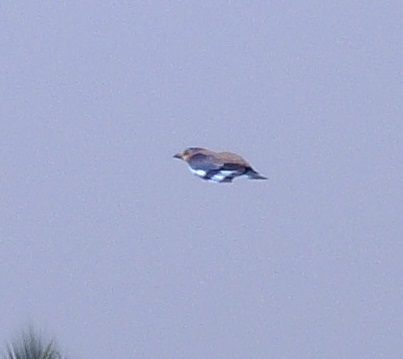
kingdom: Animalia
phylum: Chordata
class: Aves
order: Coraciiformes
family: Coraciidae
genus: Coracias
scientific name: Coracias benghalensis
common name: Indian roller
